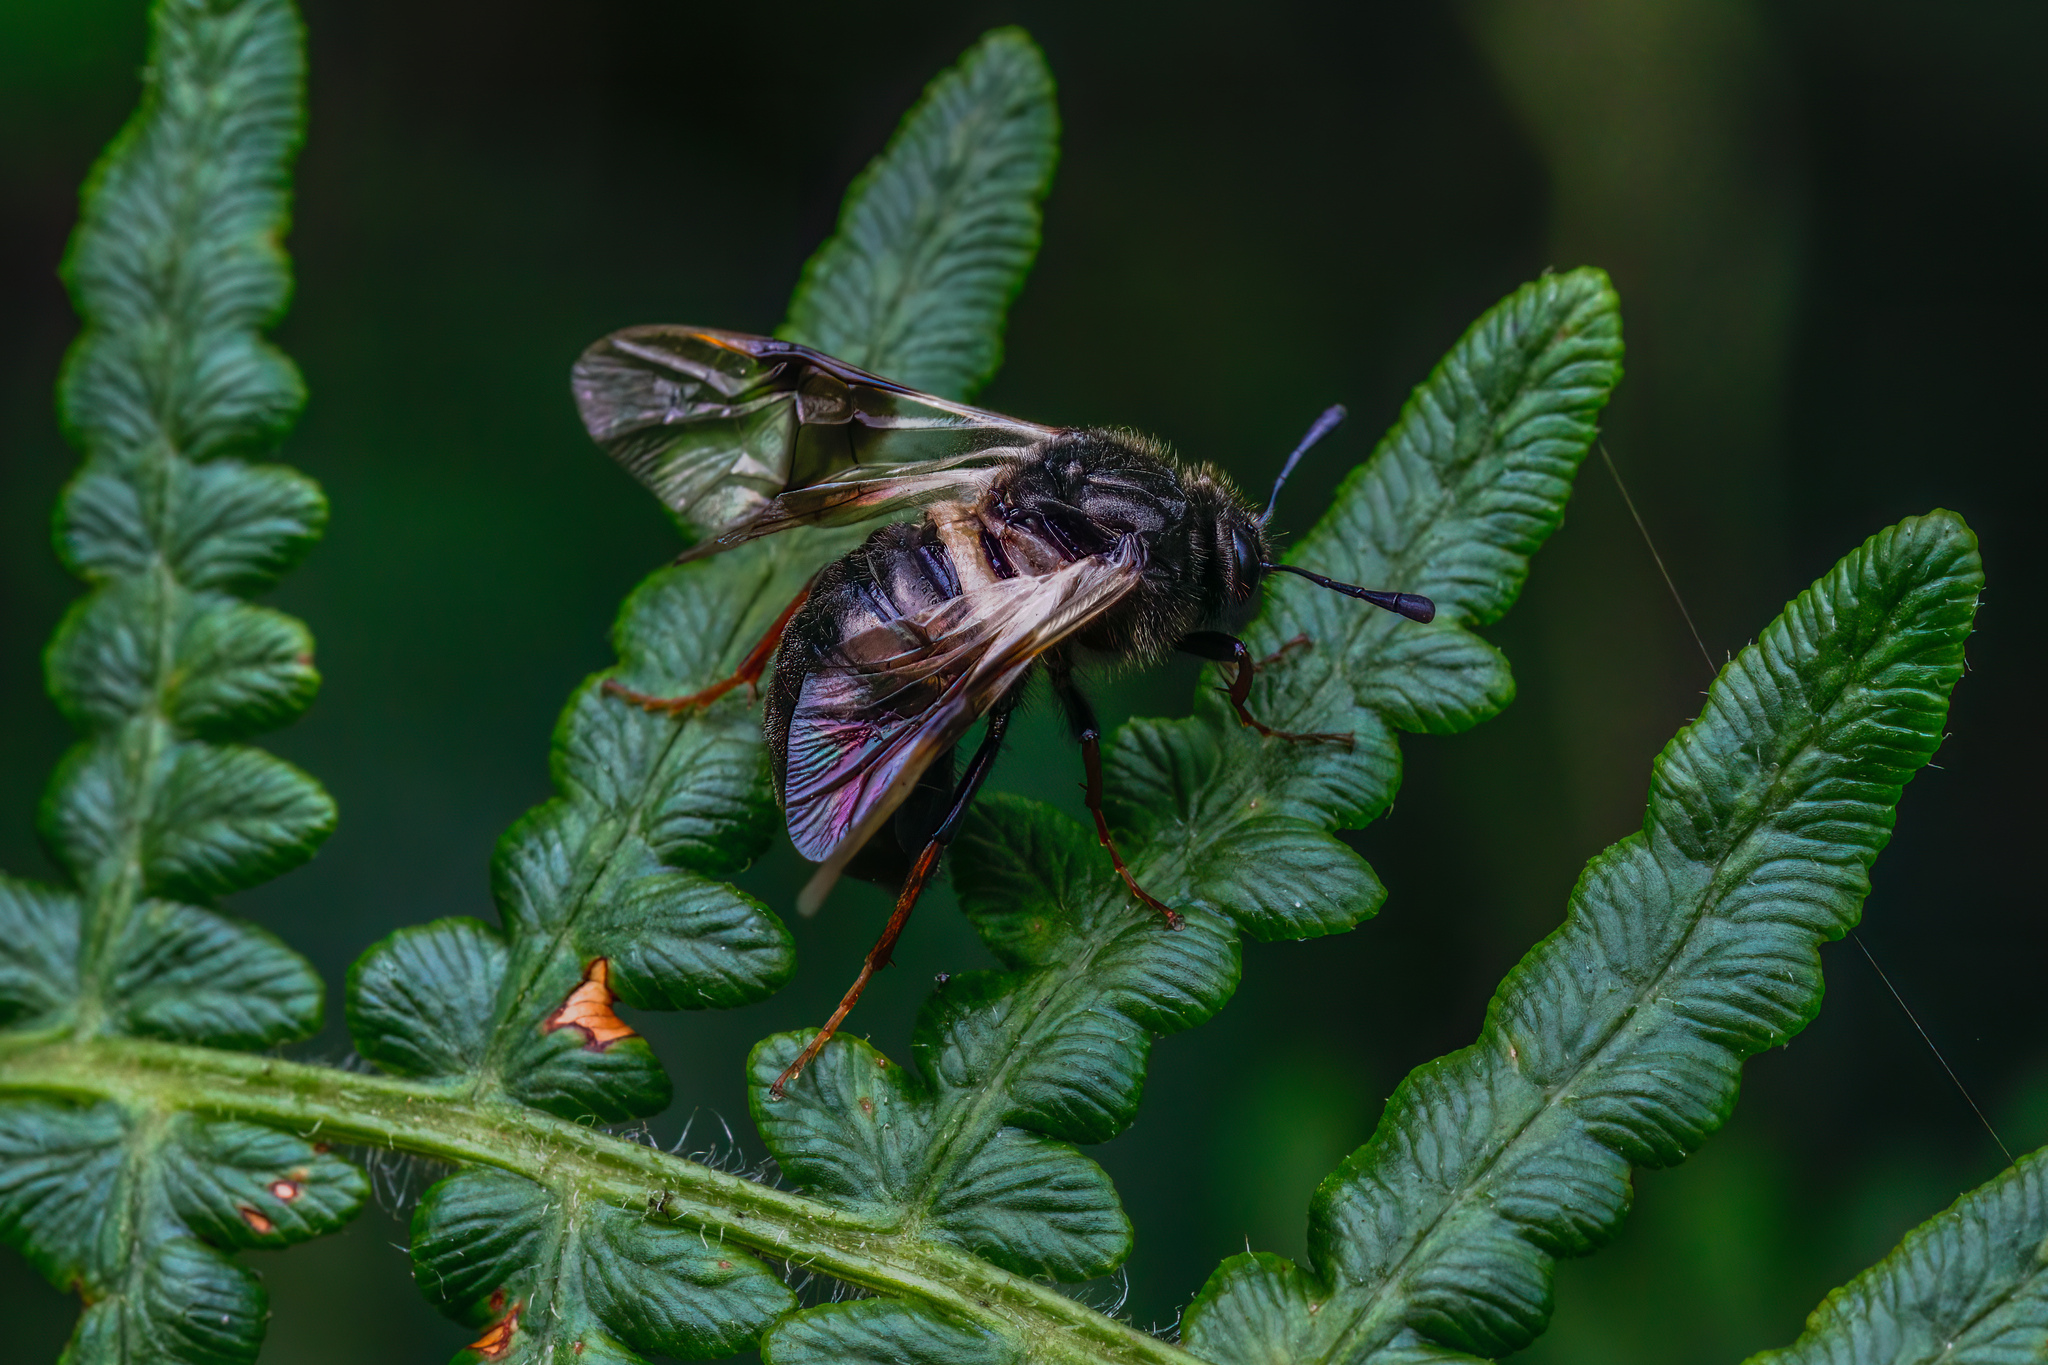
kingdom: Animalia
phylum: Arthropoda
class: Insecta
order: Hymenoptera
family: Cimbicidae
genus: Abia
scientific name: Abia fasciata
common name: Banded honeysuckle sawfly
